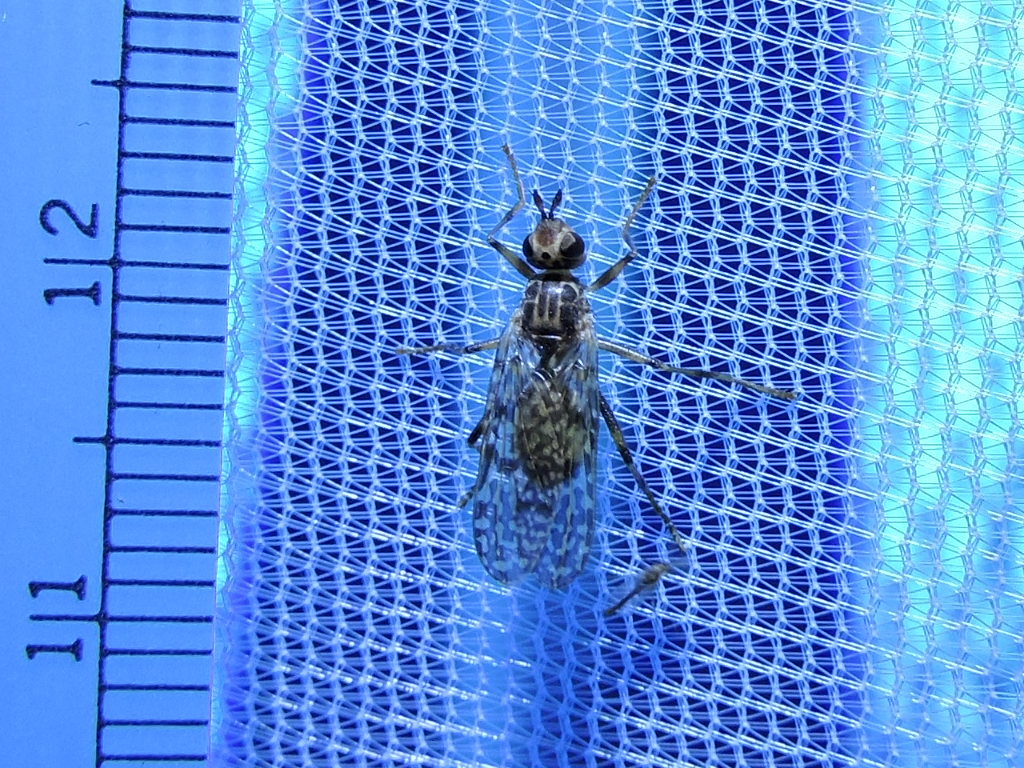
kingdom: Animalia
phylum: Arthropoda
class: Insecta
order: Diptera
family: Pyrgotidae
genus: Boreothrinax
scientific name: Boreothrinax
